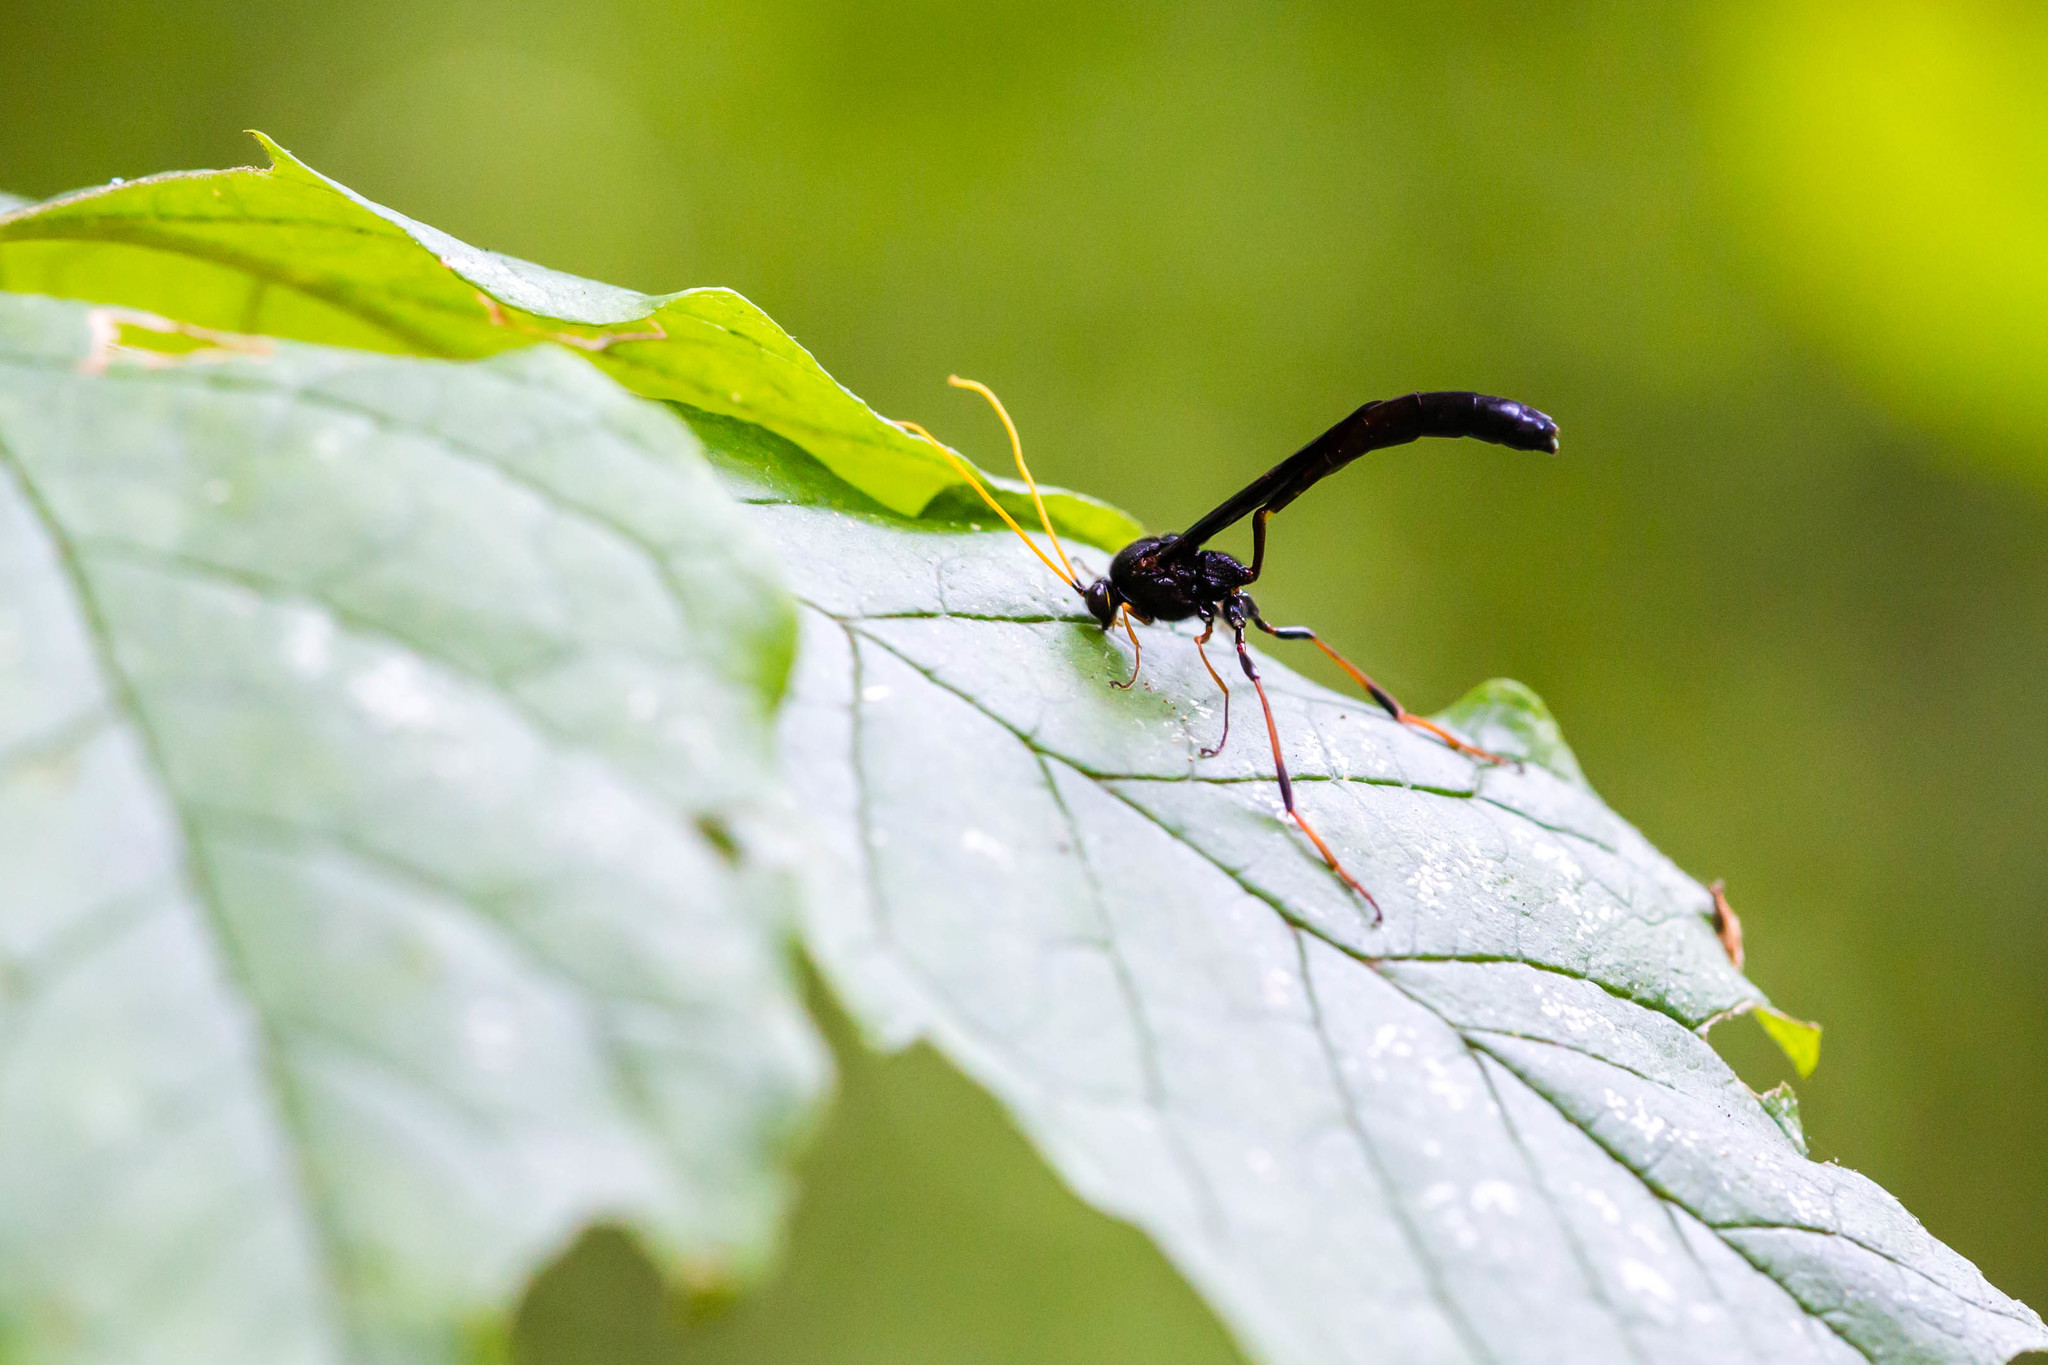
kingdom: Animalia
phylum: Arthropoda
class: Insecta
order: Hymenoptera
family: Ichneumonidae
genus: Therion
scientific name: Therion morio
